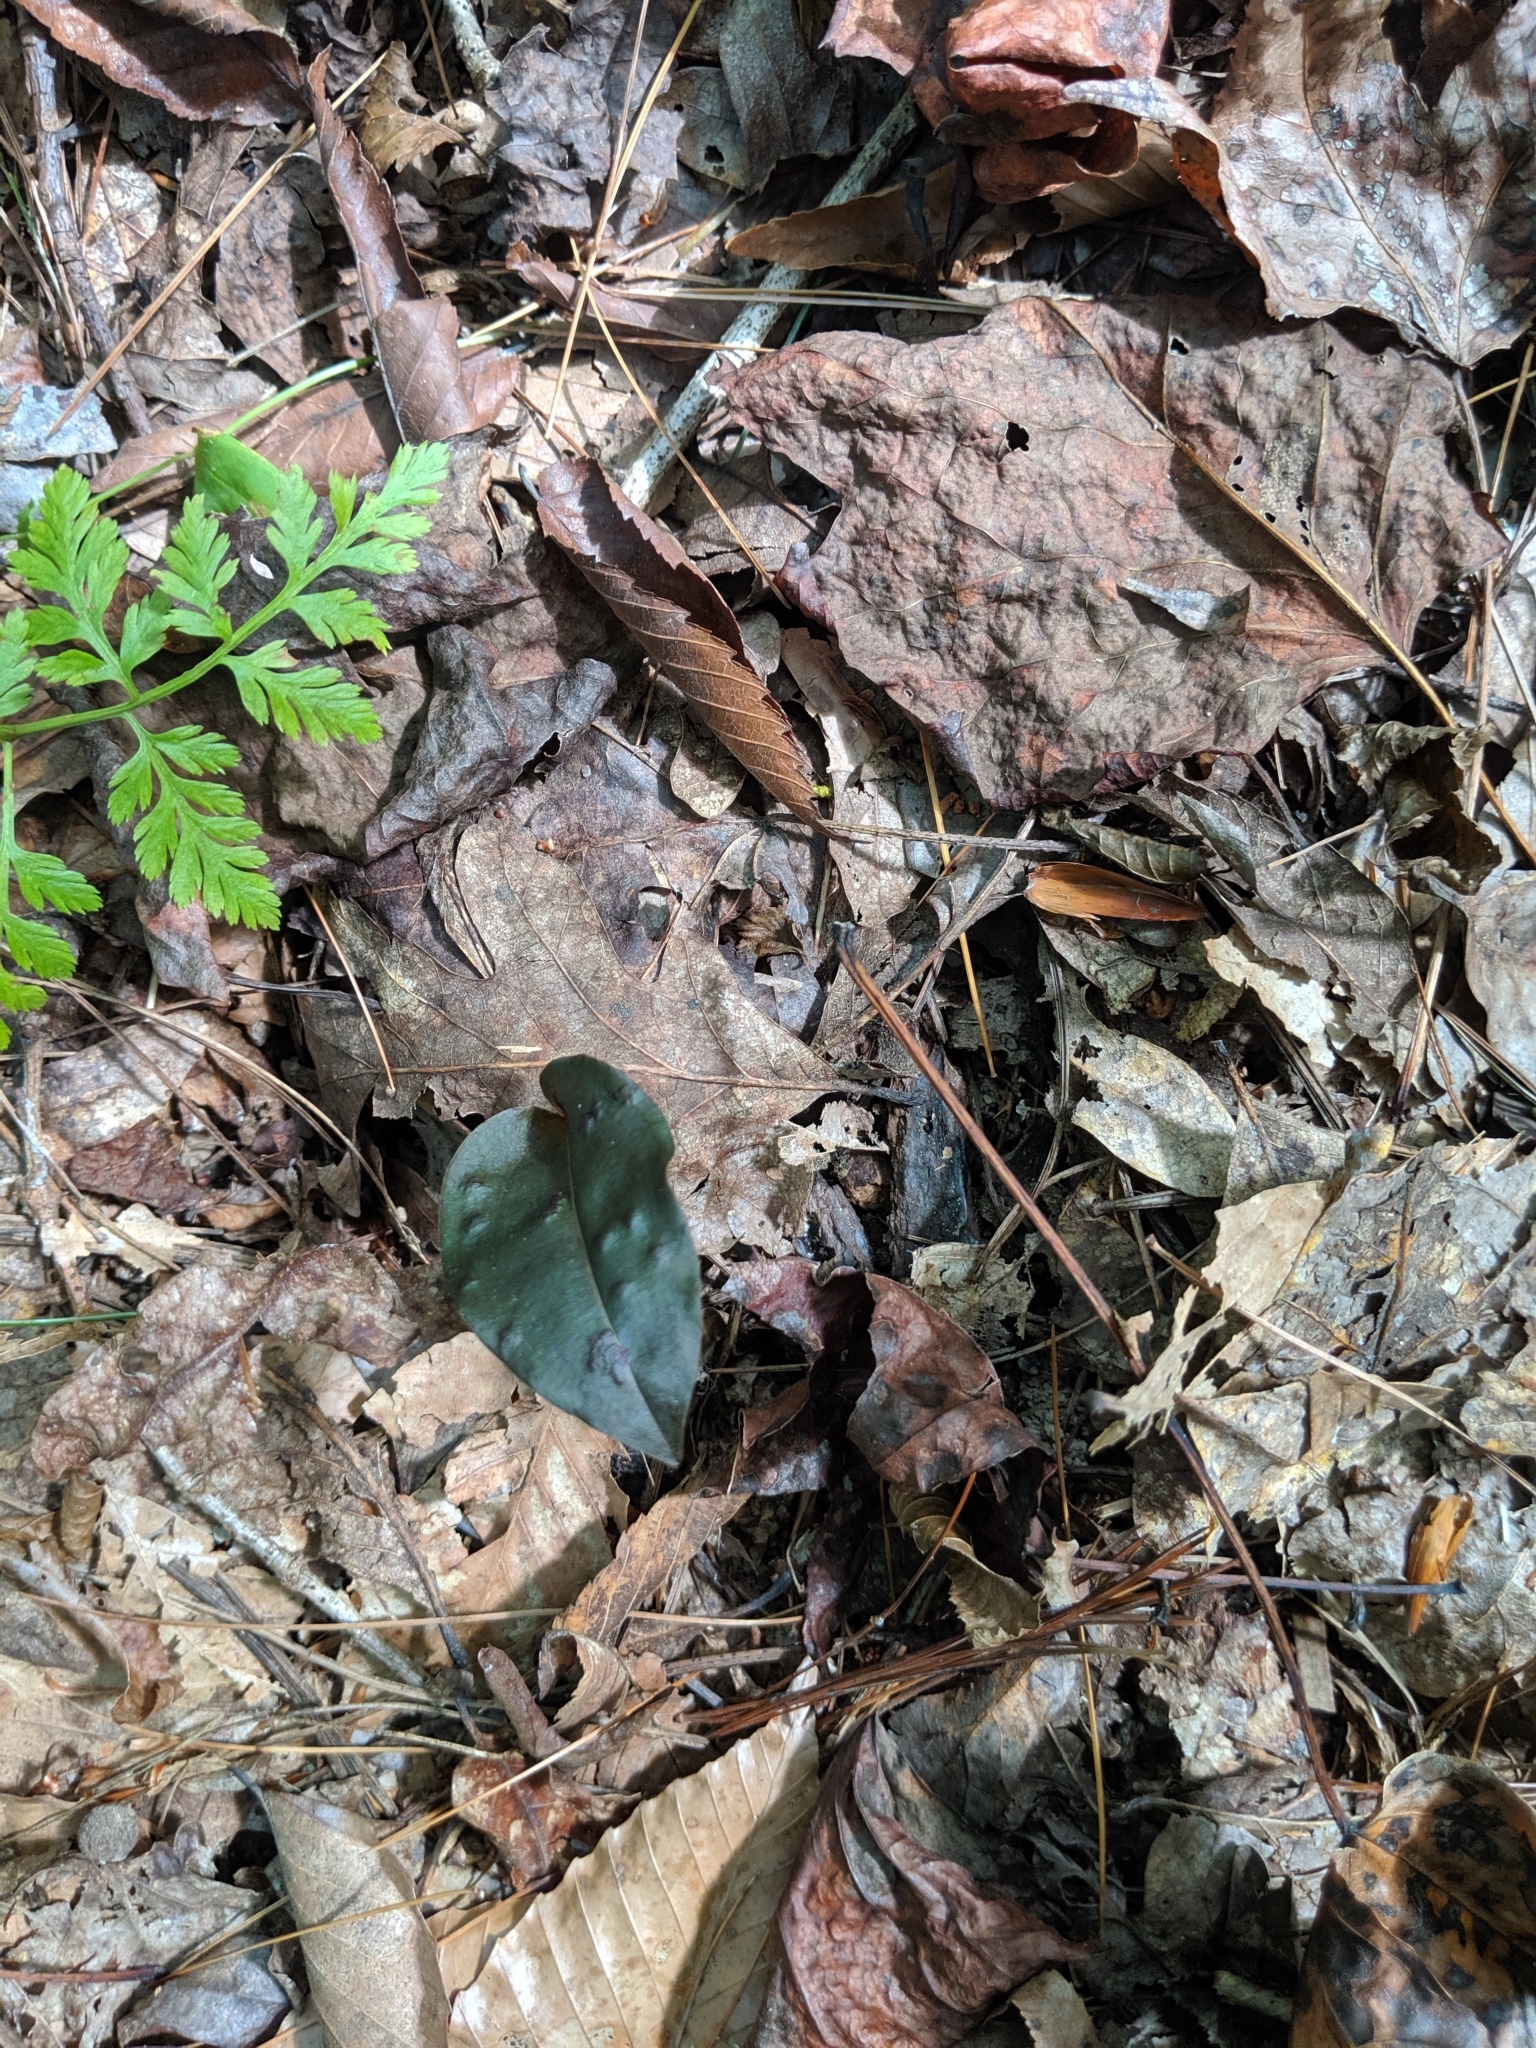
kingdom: Plantae
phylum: Tracheophyta
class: Liliopsida
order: Asparagales
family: Orchidaceae
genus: Tipularia
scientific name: Tipularia discolor
